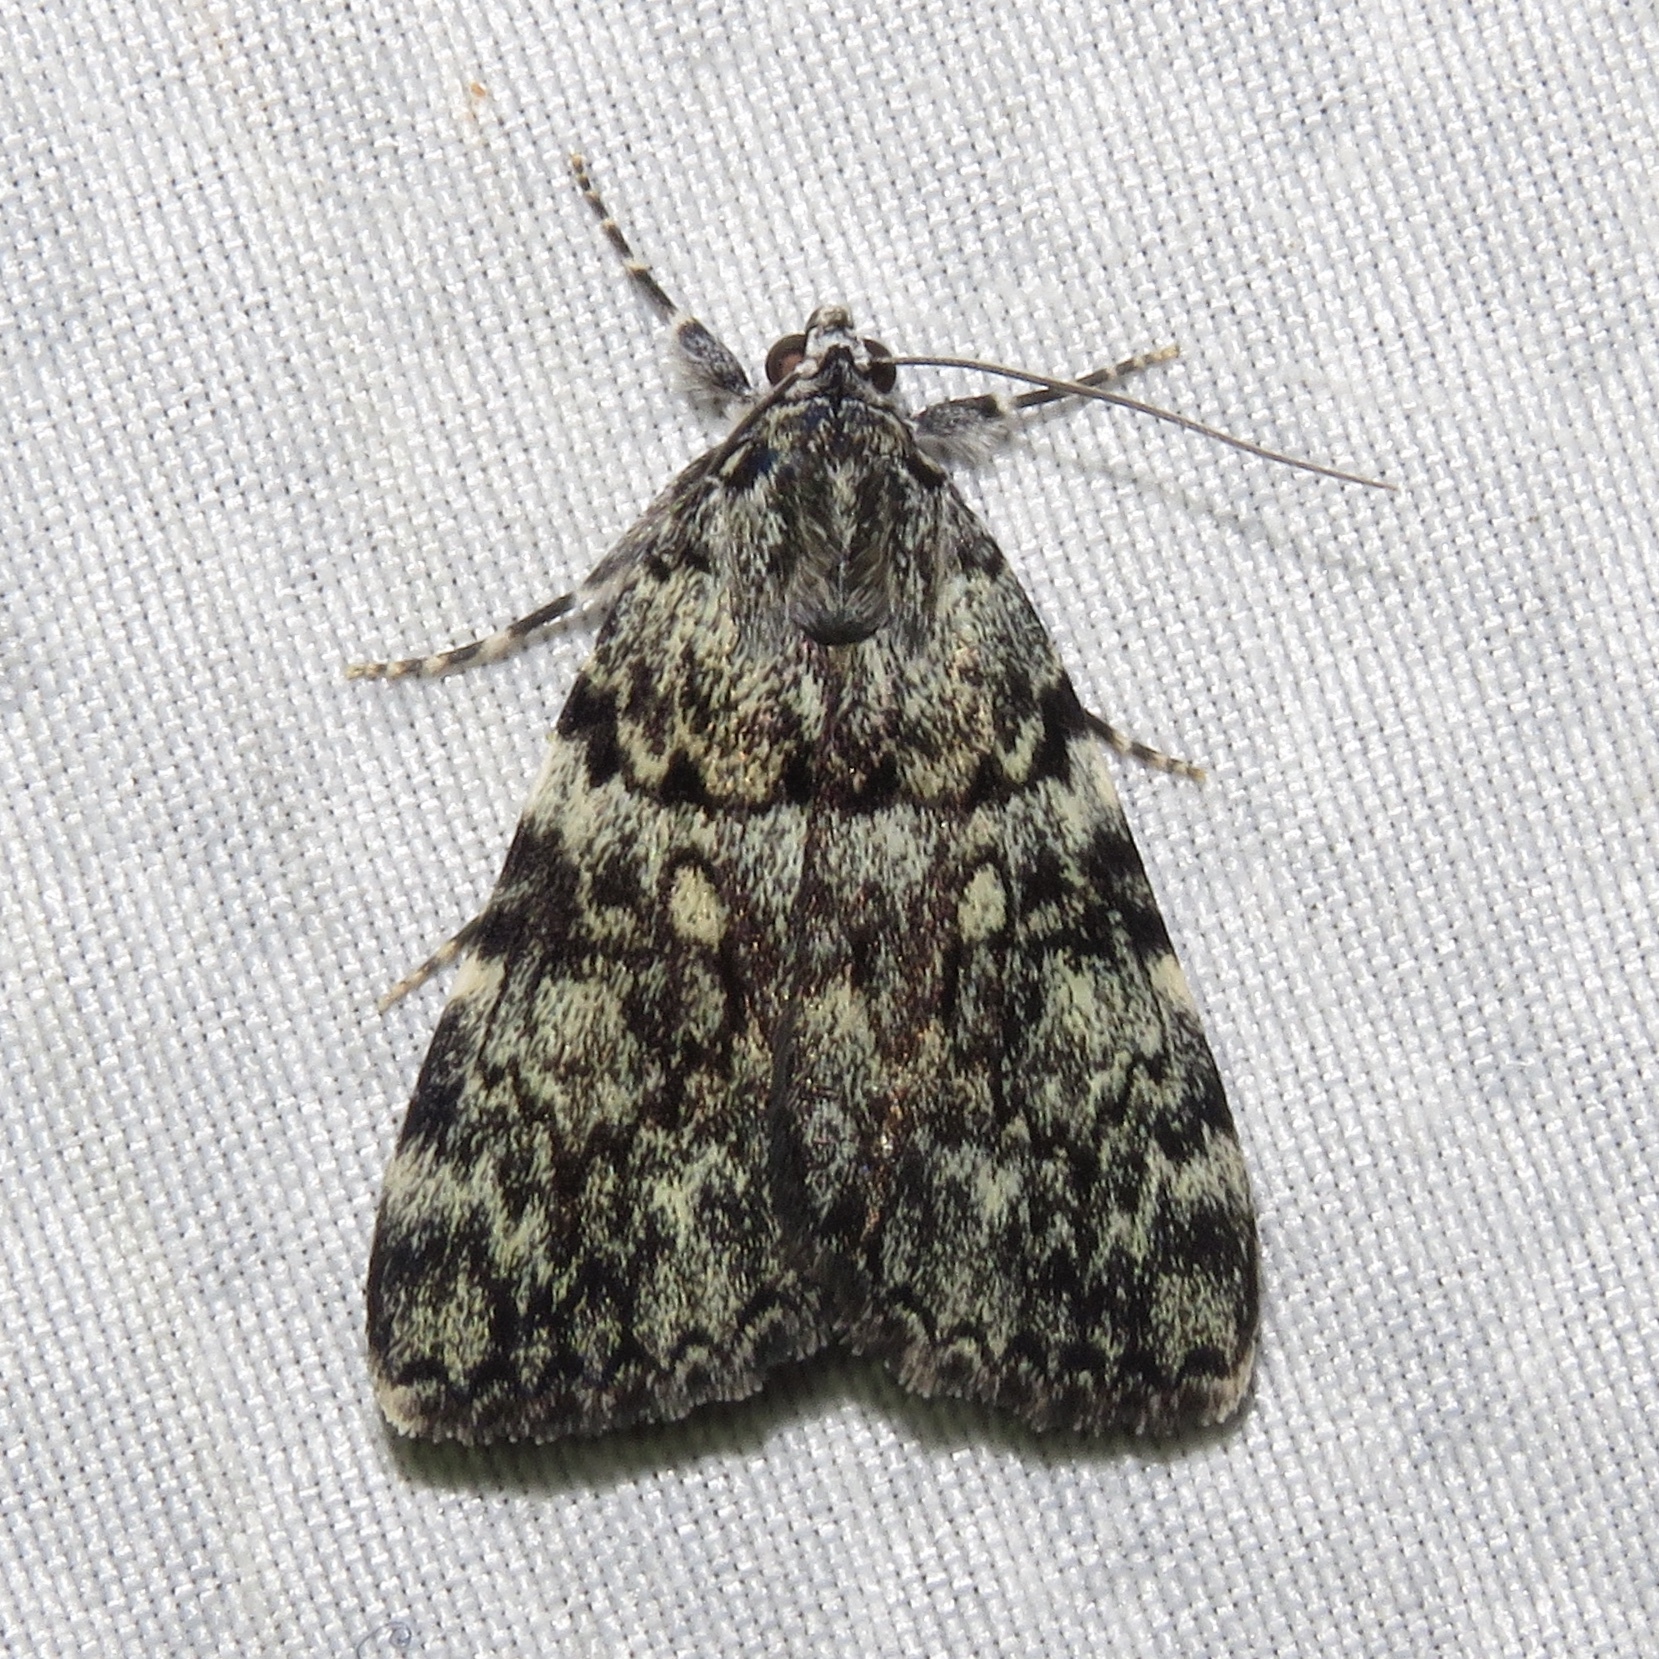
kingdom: Animalia
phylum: Arthropoda
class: Insecta
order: Lepidoptera
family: Erebidae
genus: Catocala
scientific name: Catocala lineella
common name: Little lined underwing
